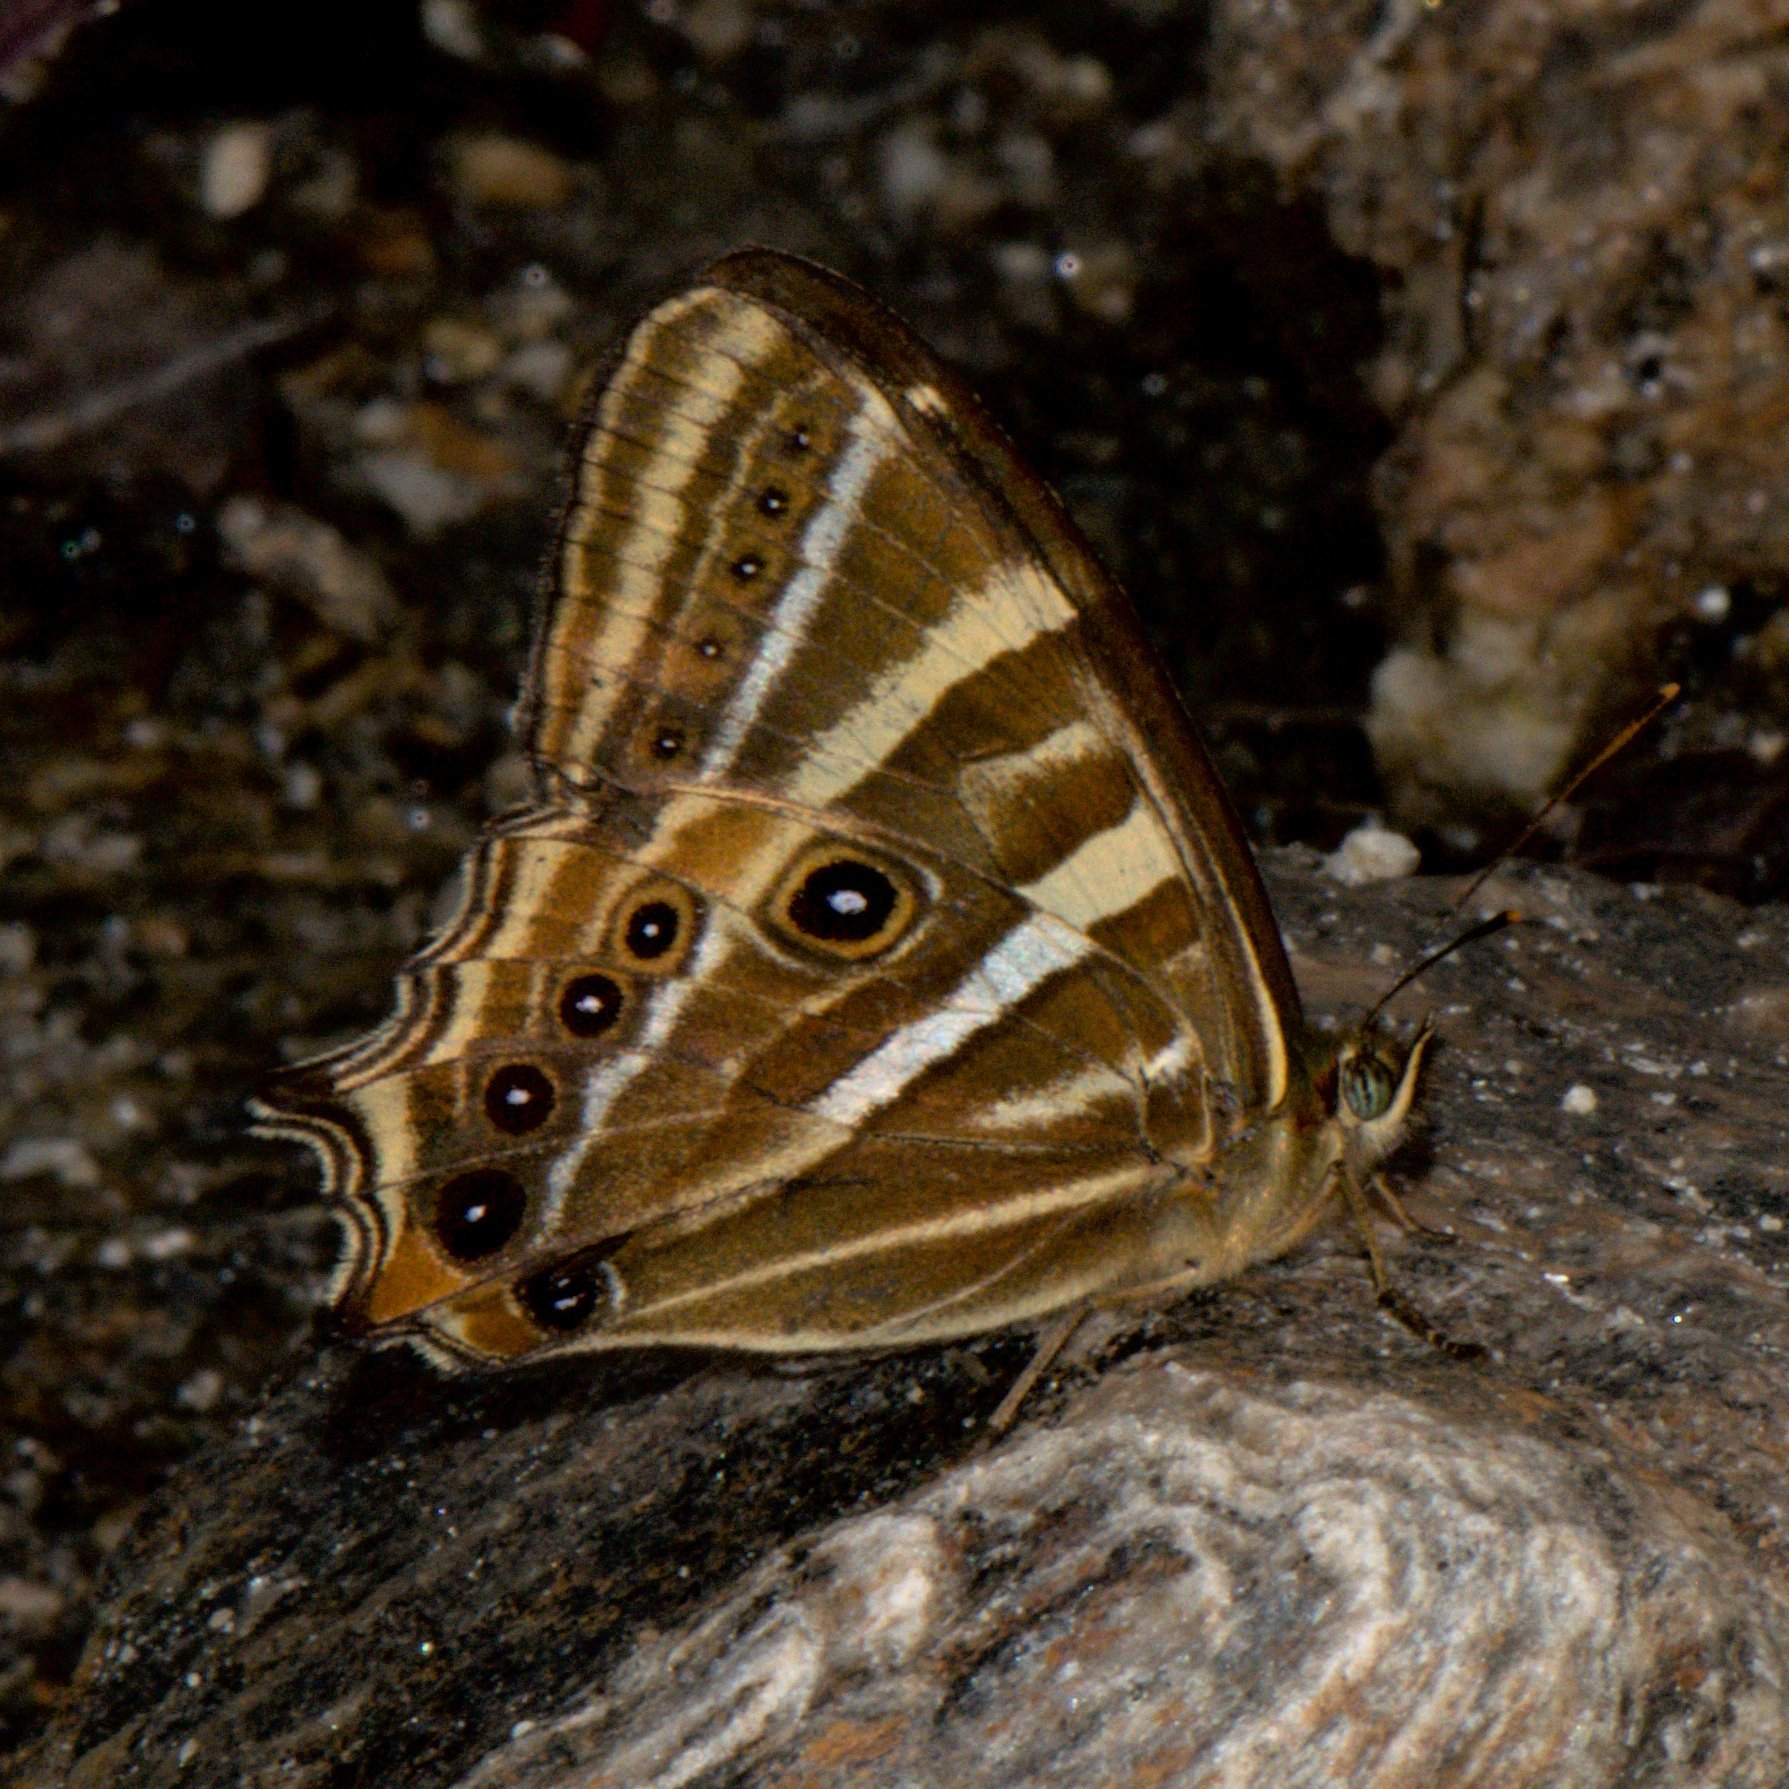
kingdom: Animalia
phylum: Arthropoda
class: Insecta
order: Lepidoptera
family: Nymphalidae
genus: Lethe
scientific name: Lethe baladeva
